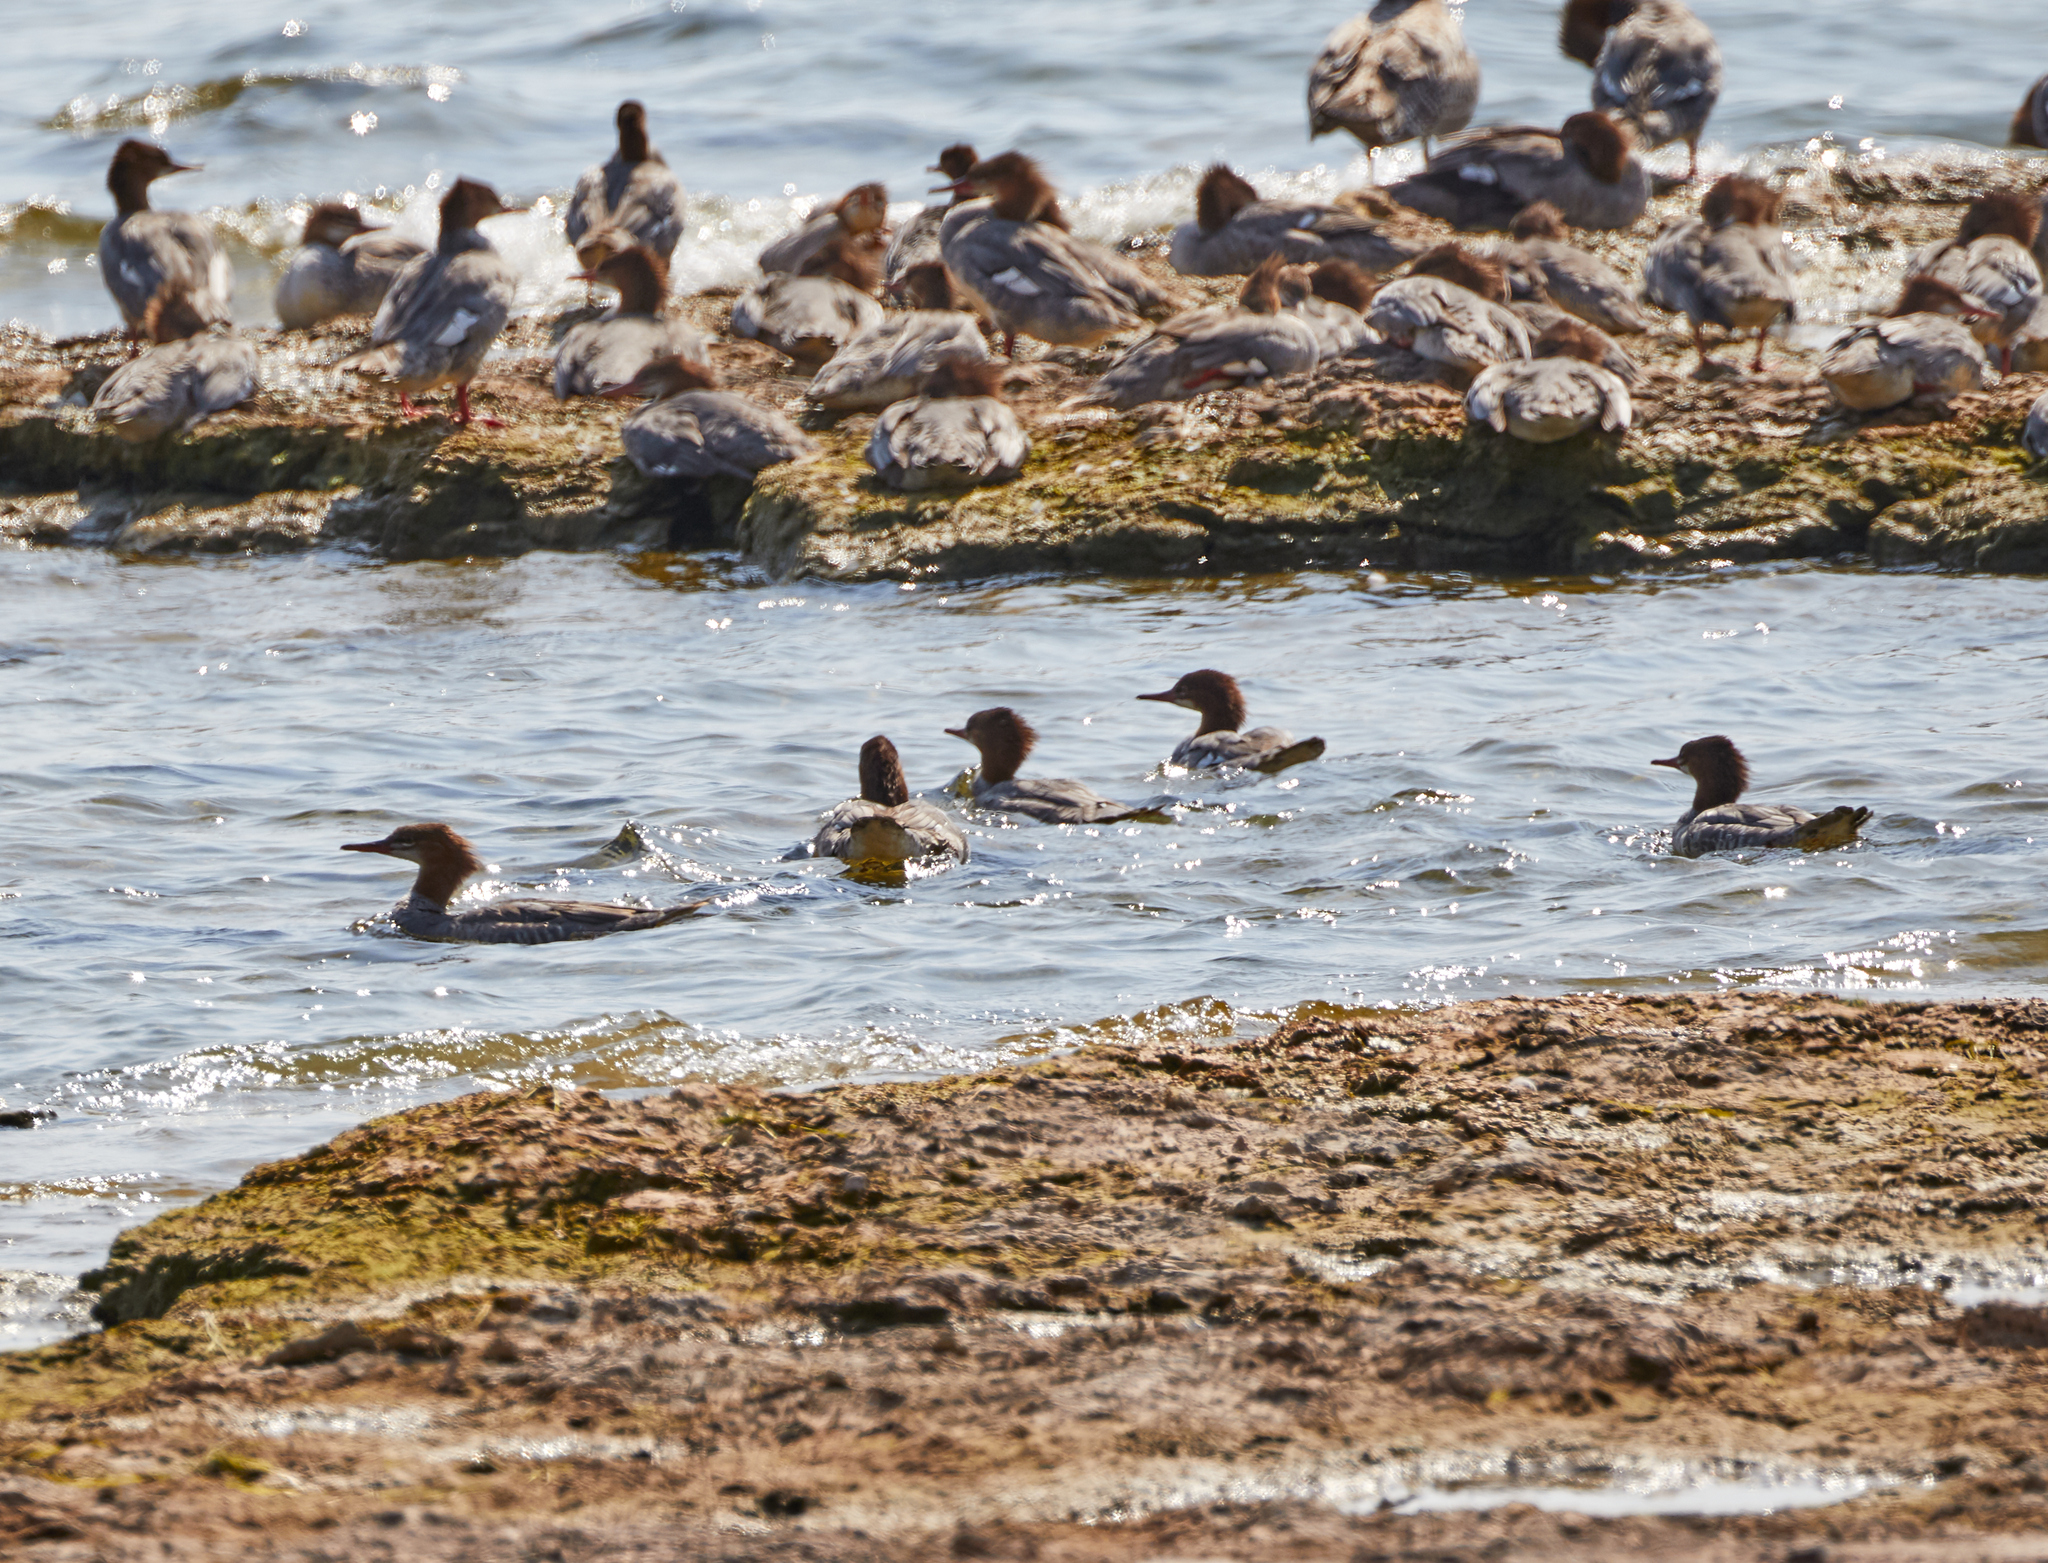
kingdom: Animalia
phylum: Chordata
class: Aves
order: Anseriformes
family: Anatidae
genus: Mergus
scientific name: Mergus merganser
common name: Common merganser
